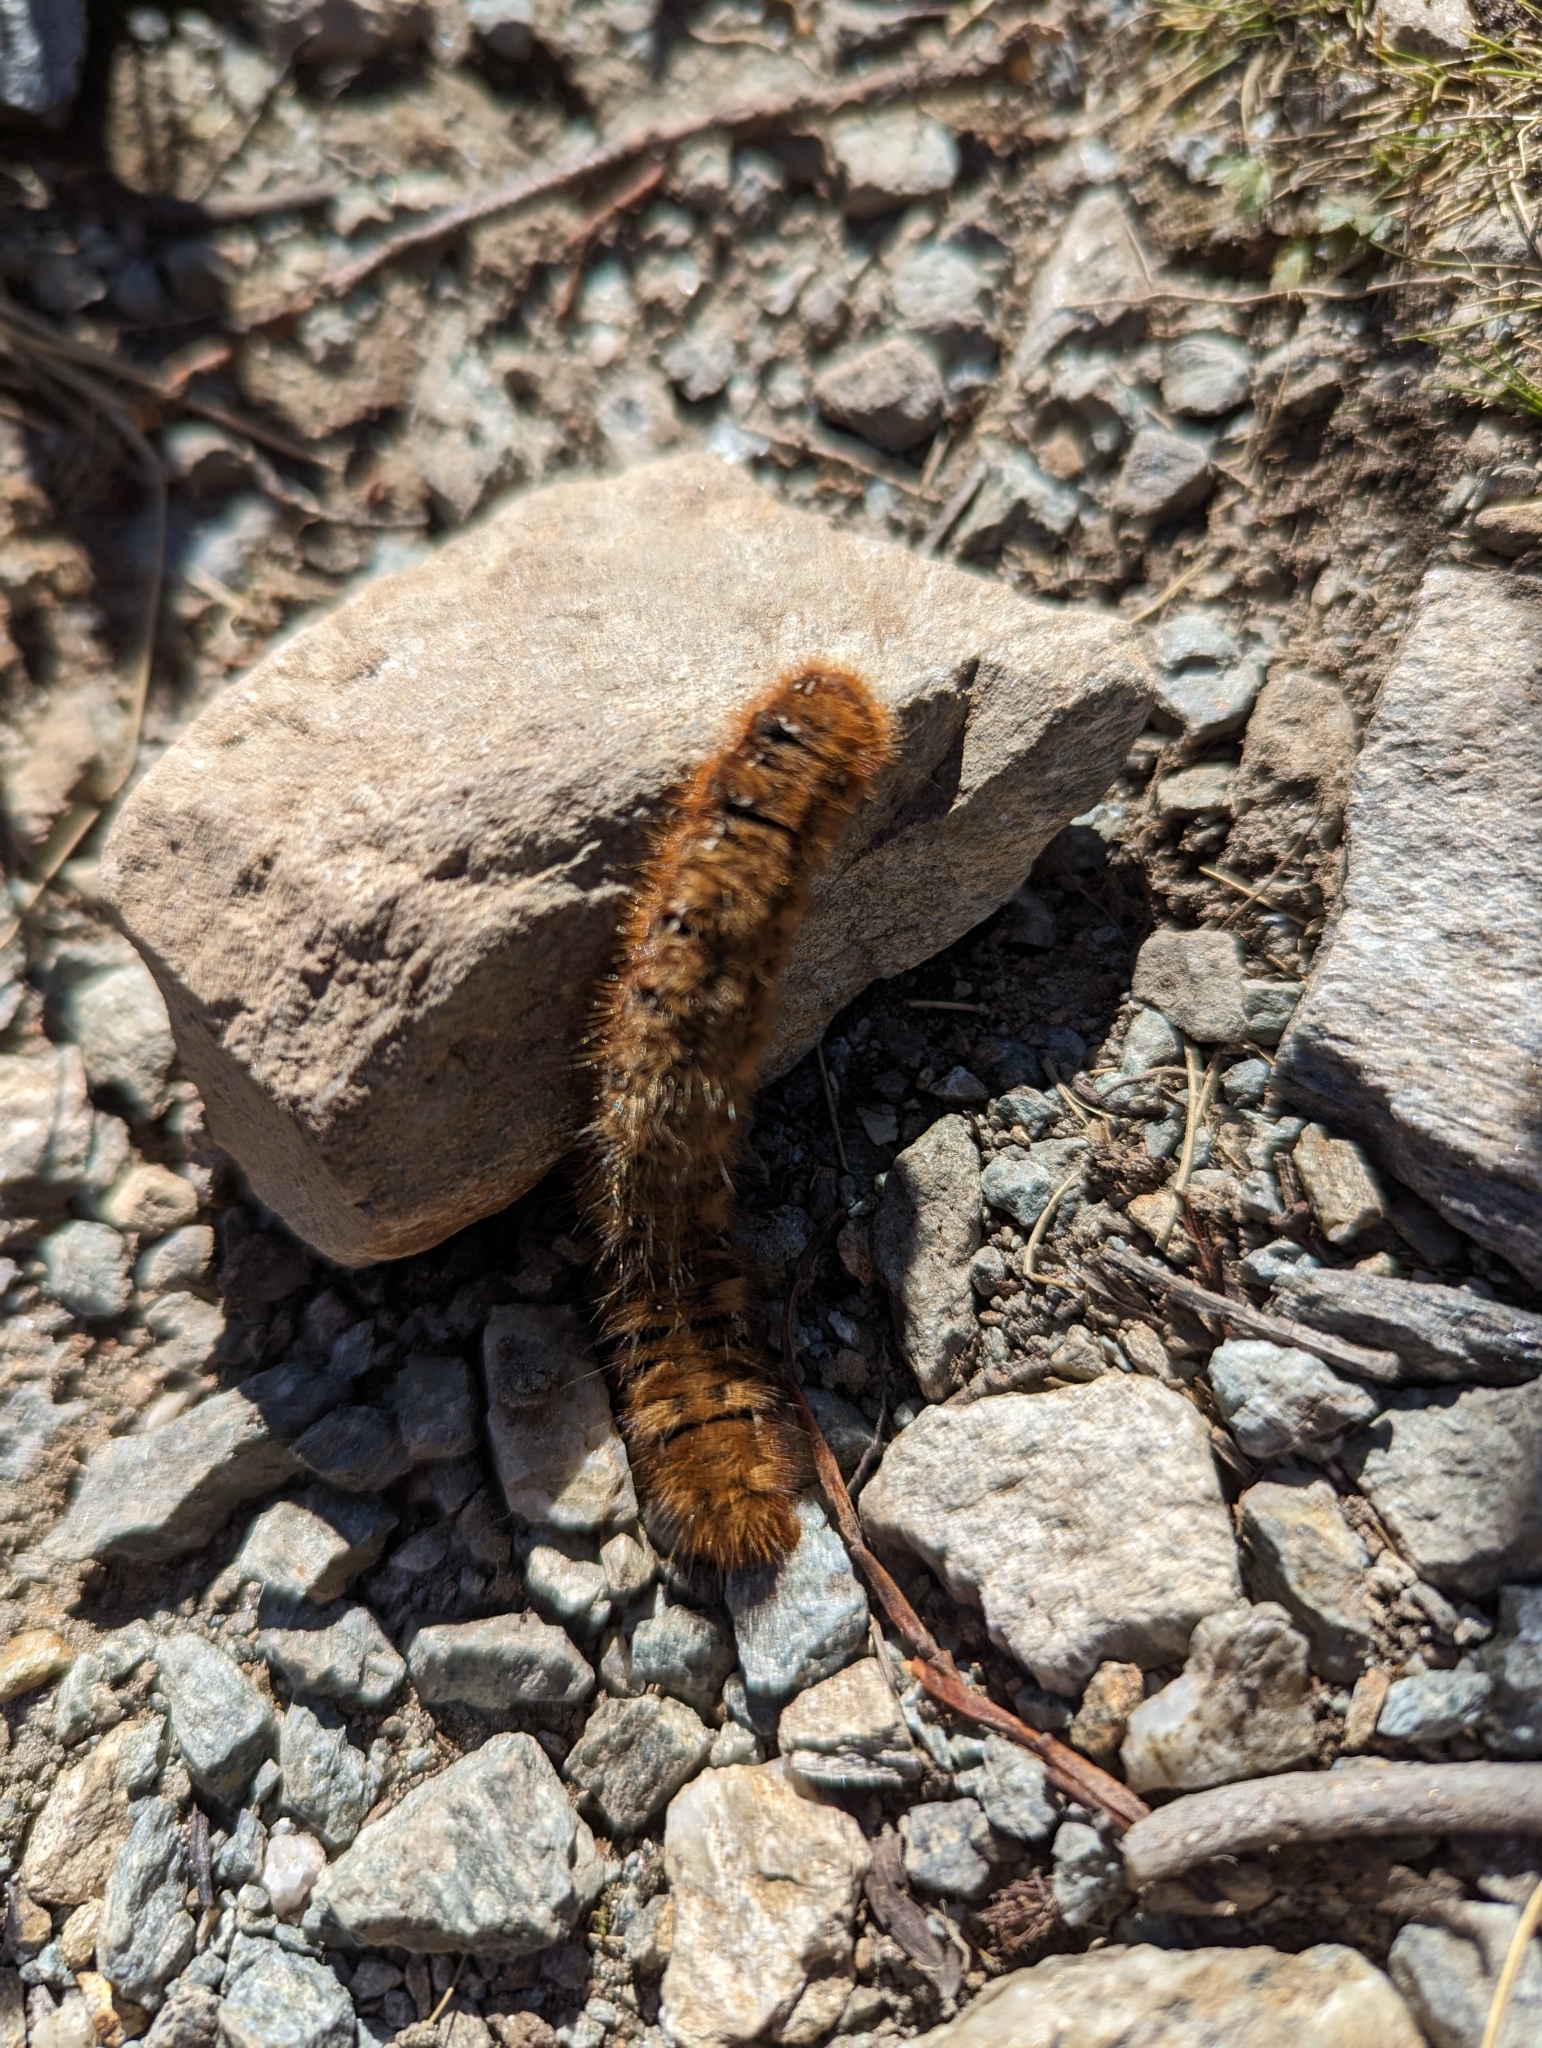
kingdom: Animalia
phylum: Arthropoda
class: Insecta
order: Lepidoptera
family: Lasiocampidae
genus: Lasiocampa
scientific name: Lasiocampa quercus
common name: Oak eggar
